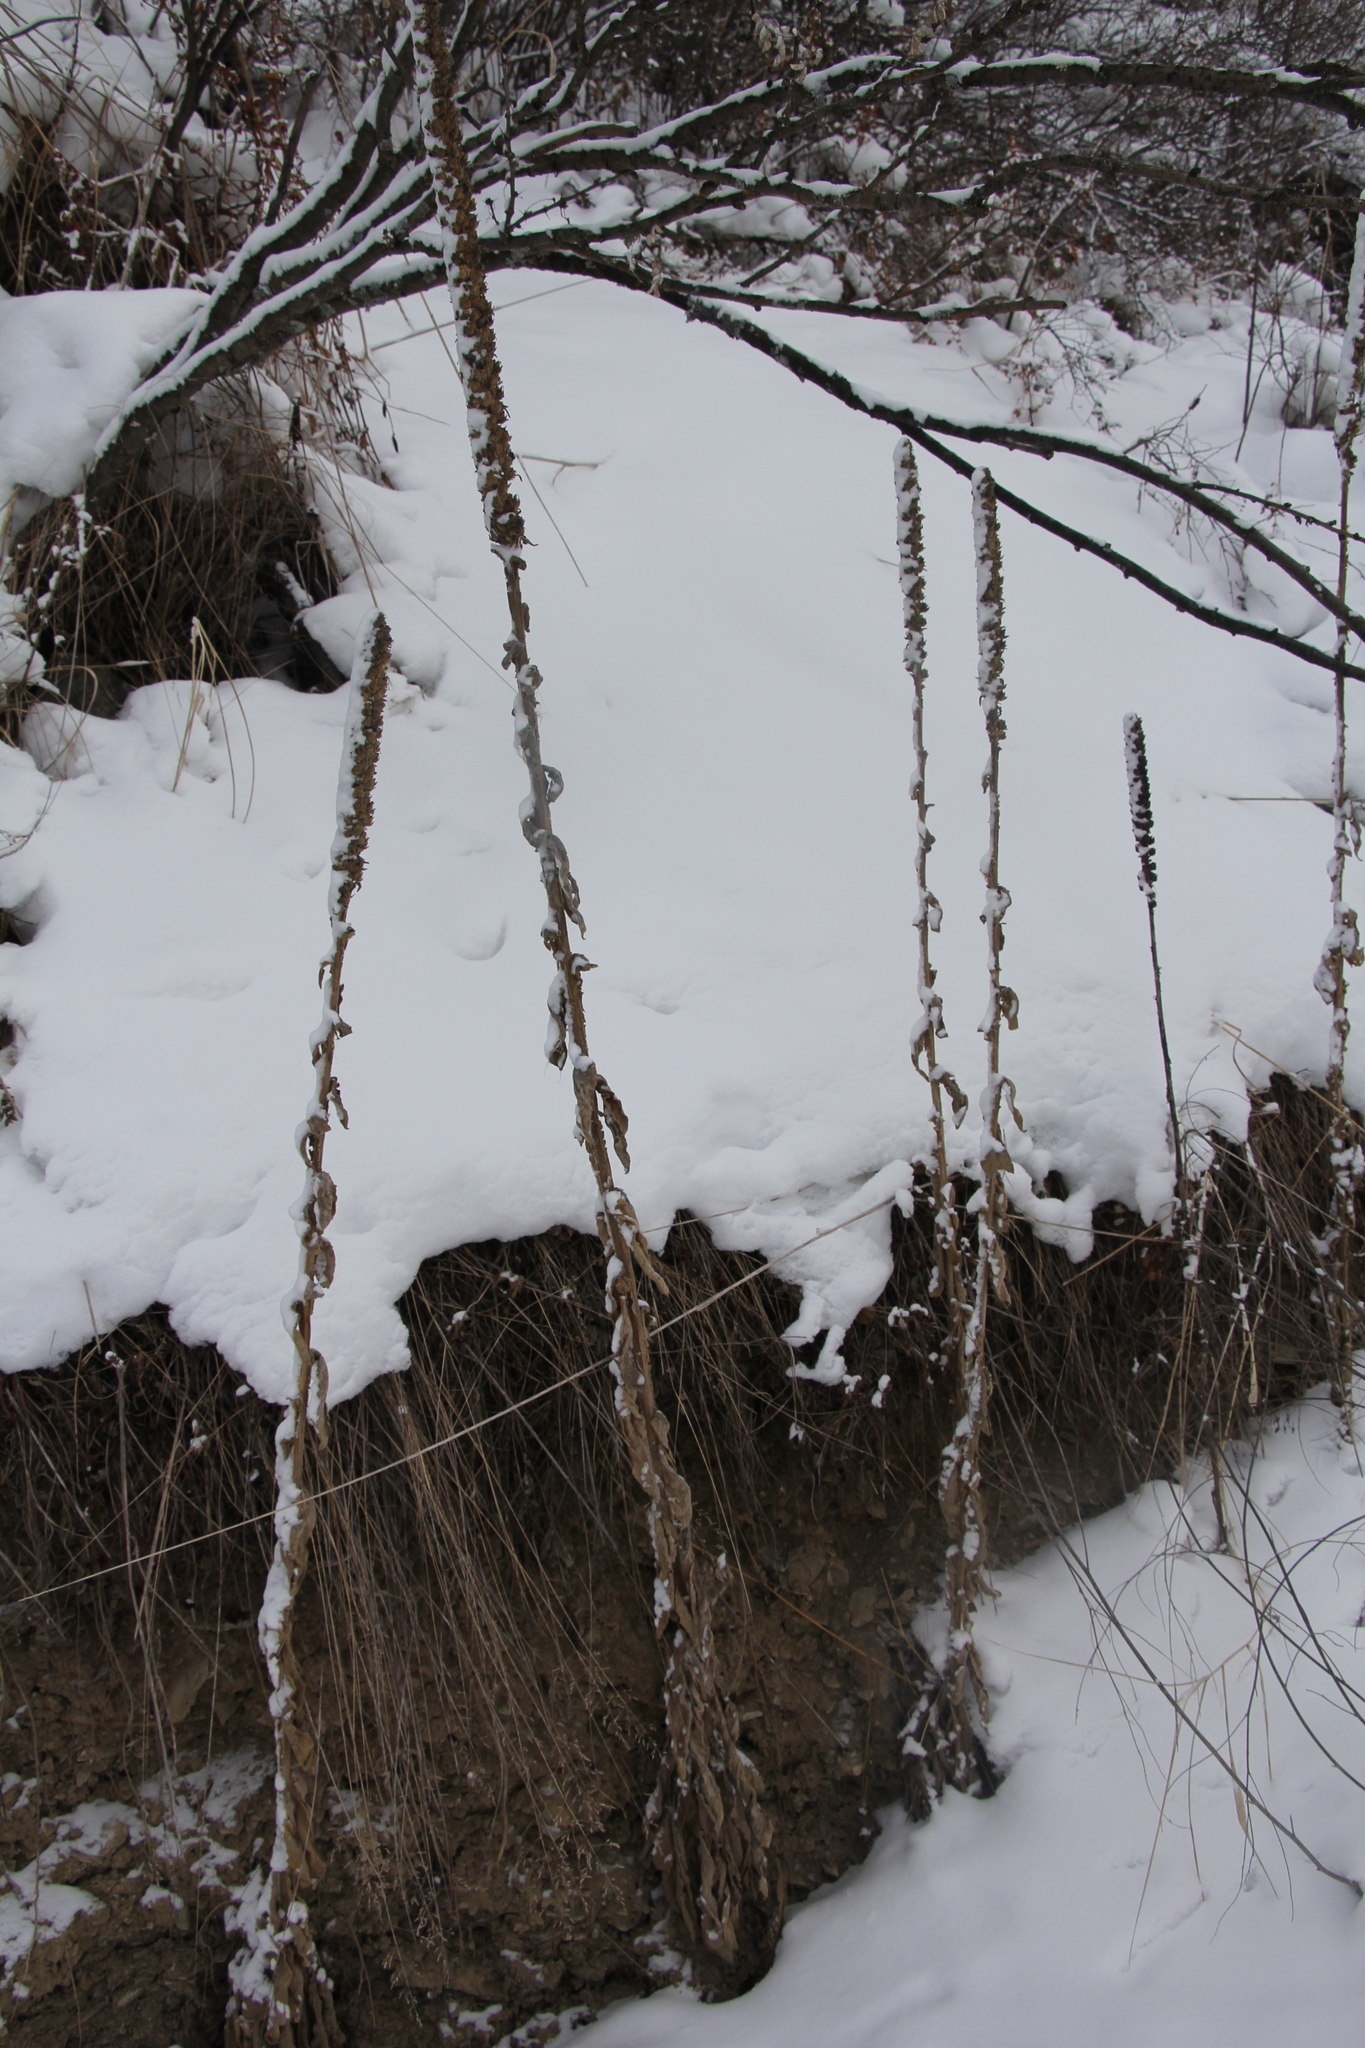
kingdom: Plantae
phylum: Tracheophyta
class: Magnoliopsida
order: Lamiales
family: Scrophulariaceae
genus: Verbascum
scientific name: Verbascum thapsus
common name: Common mullein
